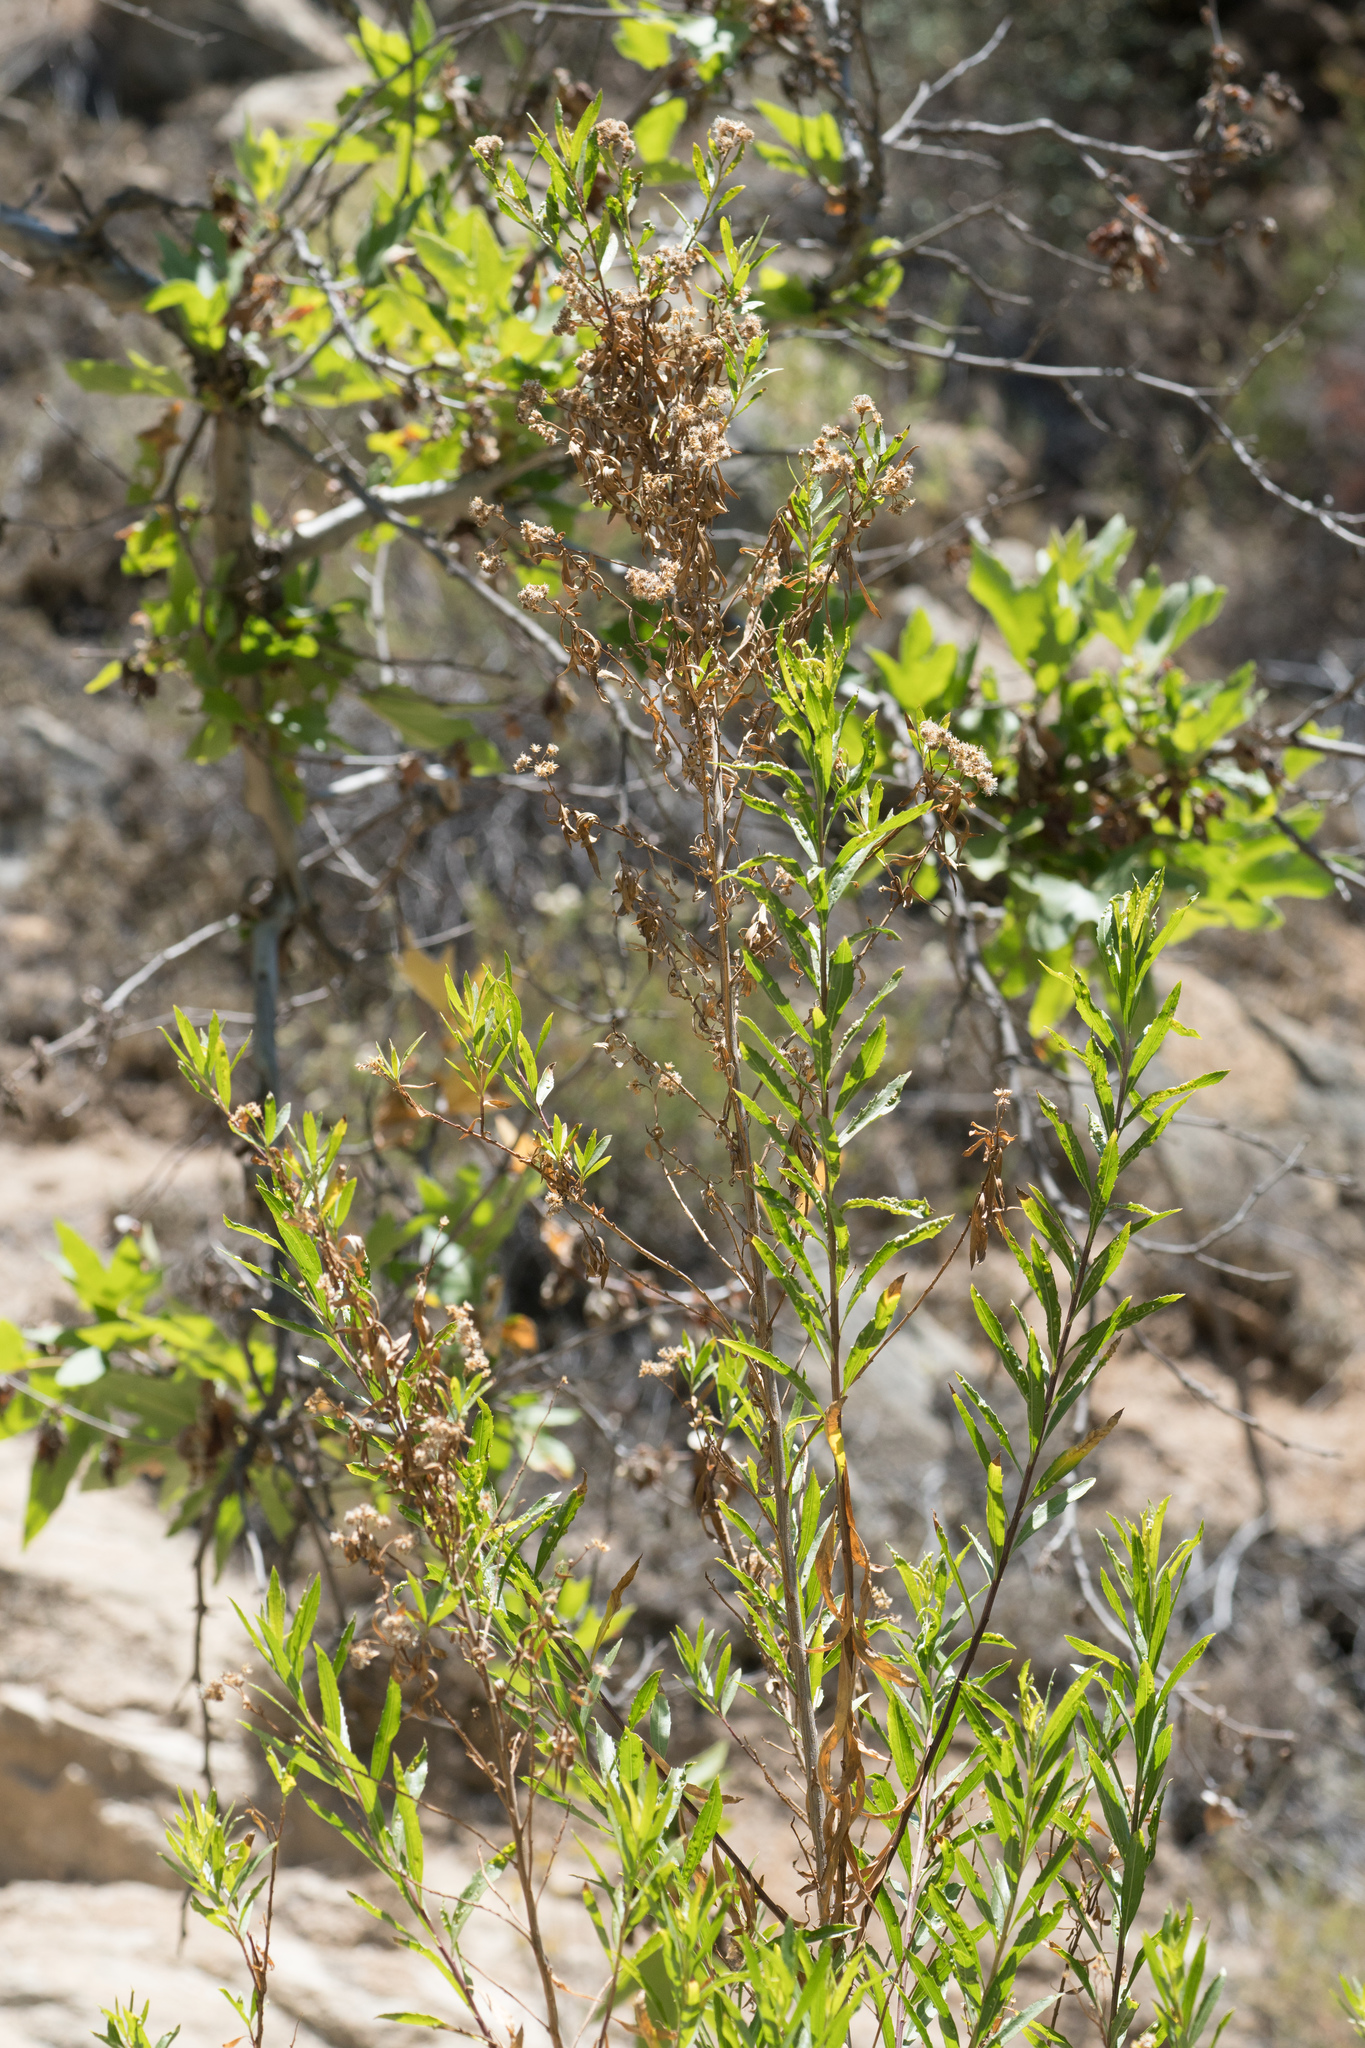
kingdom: Plantae
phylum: Tracheophyta
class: Magnoliopsida
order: Asterales
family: Asteraceae
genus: Baccharis
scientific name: Baccharis salicifolia
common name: Sticky baccharis
